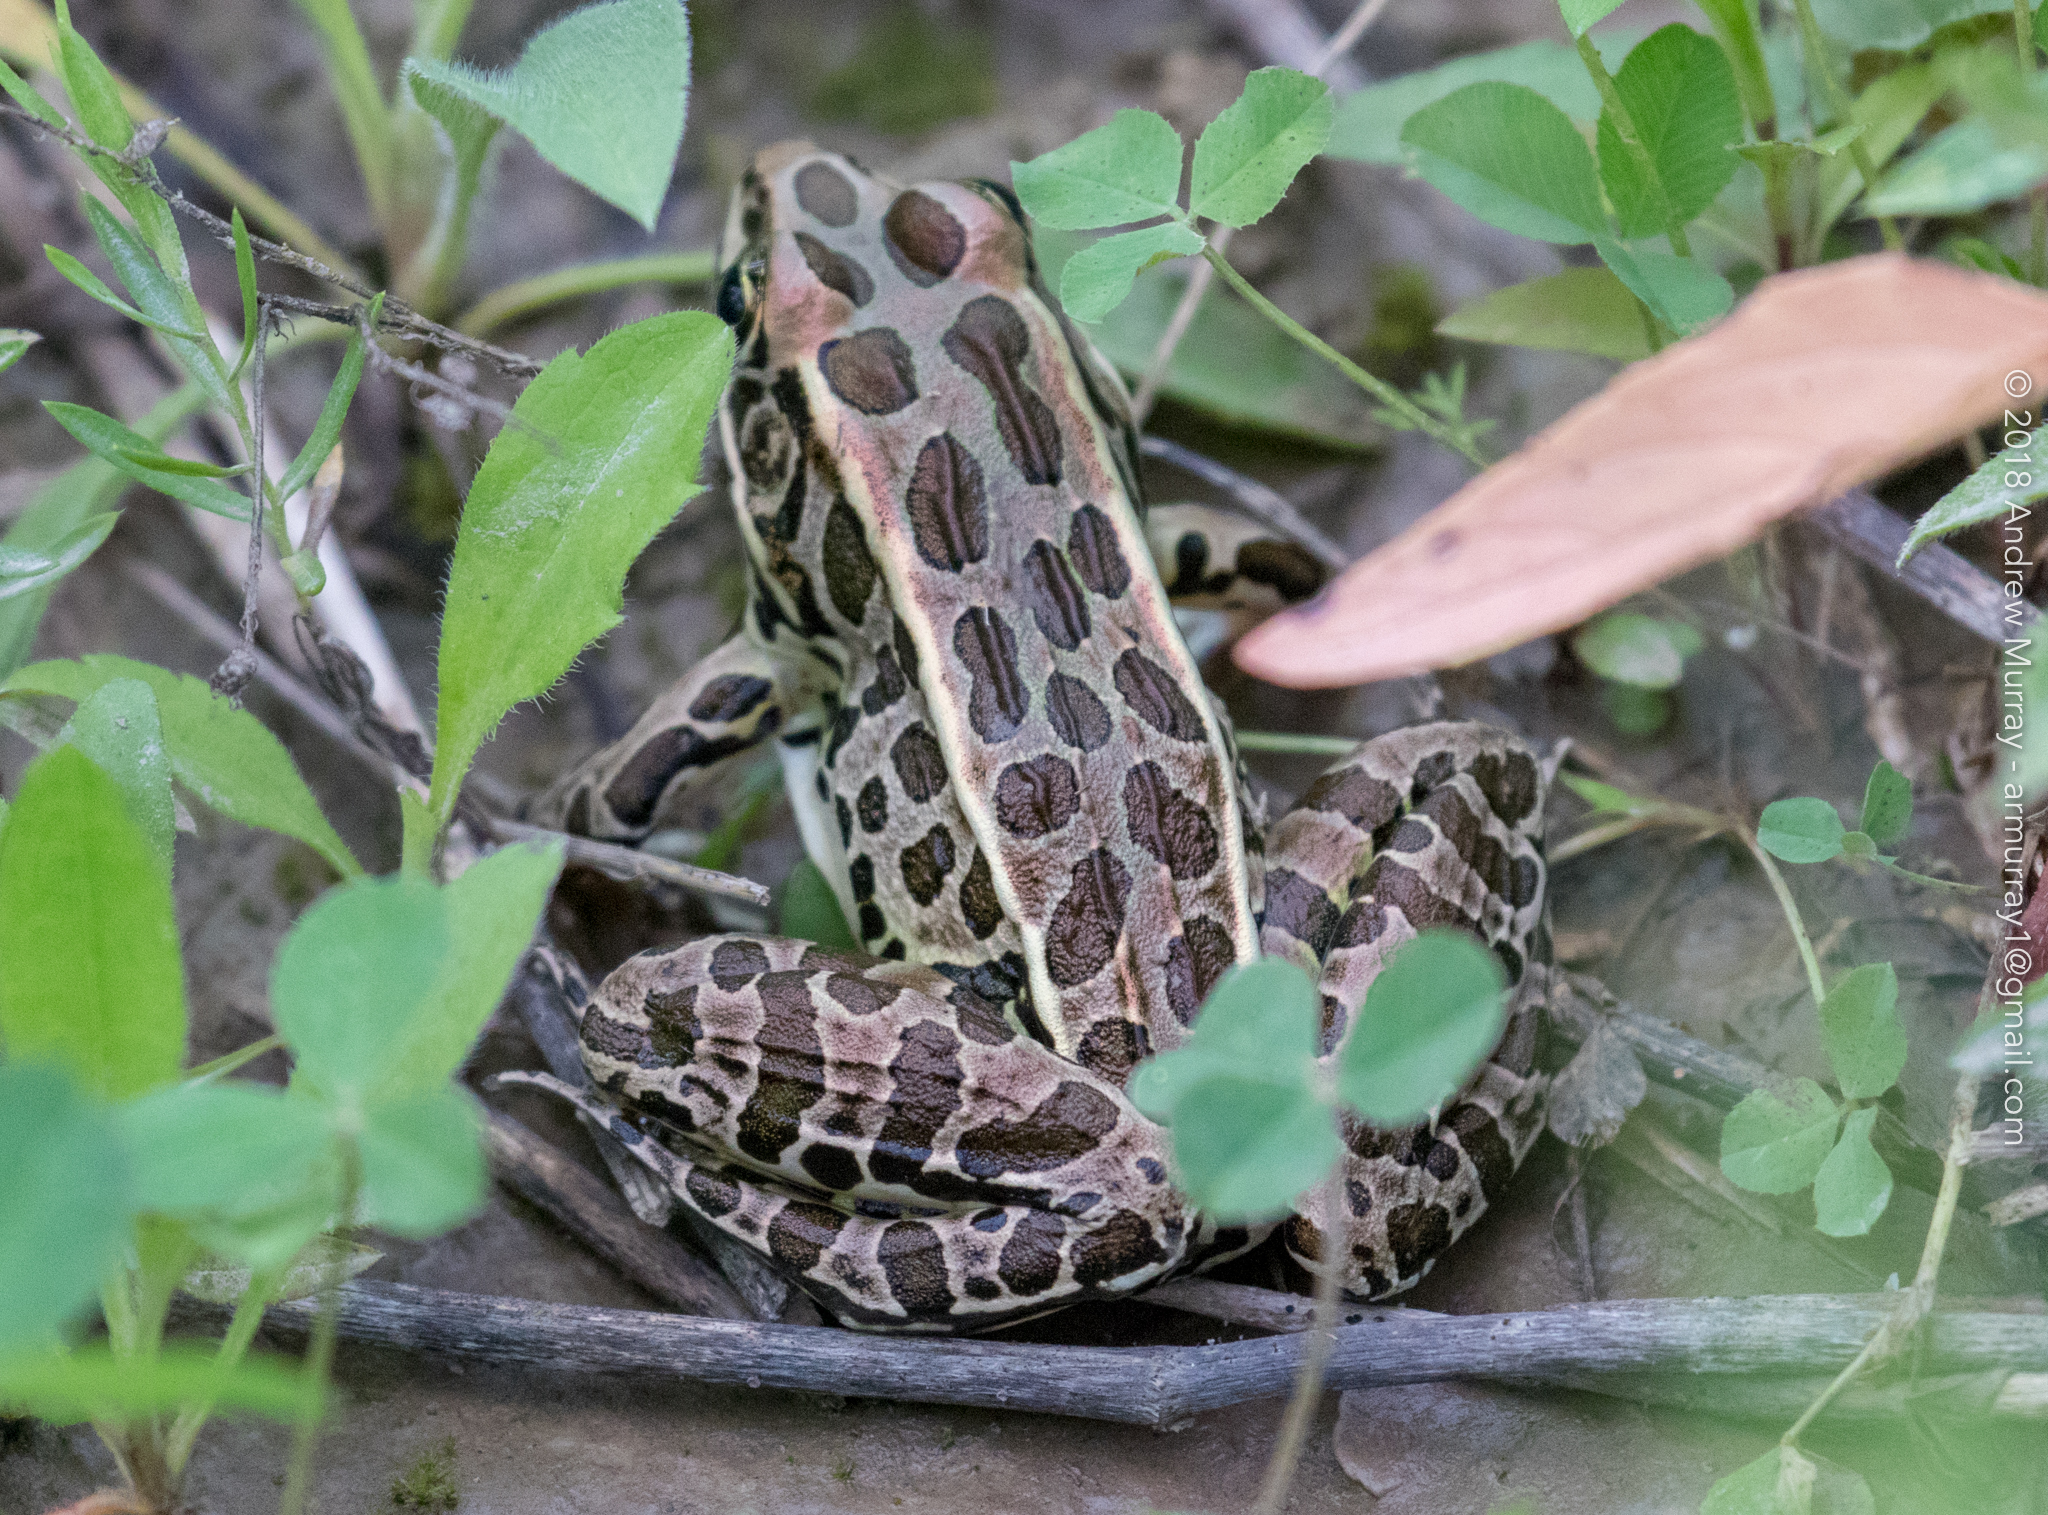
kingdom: Animalia
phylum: Chordata
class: Amphibia
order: Anura
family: Ranidae
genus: Lithobates
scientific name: Lithobates pipiens
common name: Northern leopard frog
